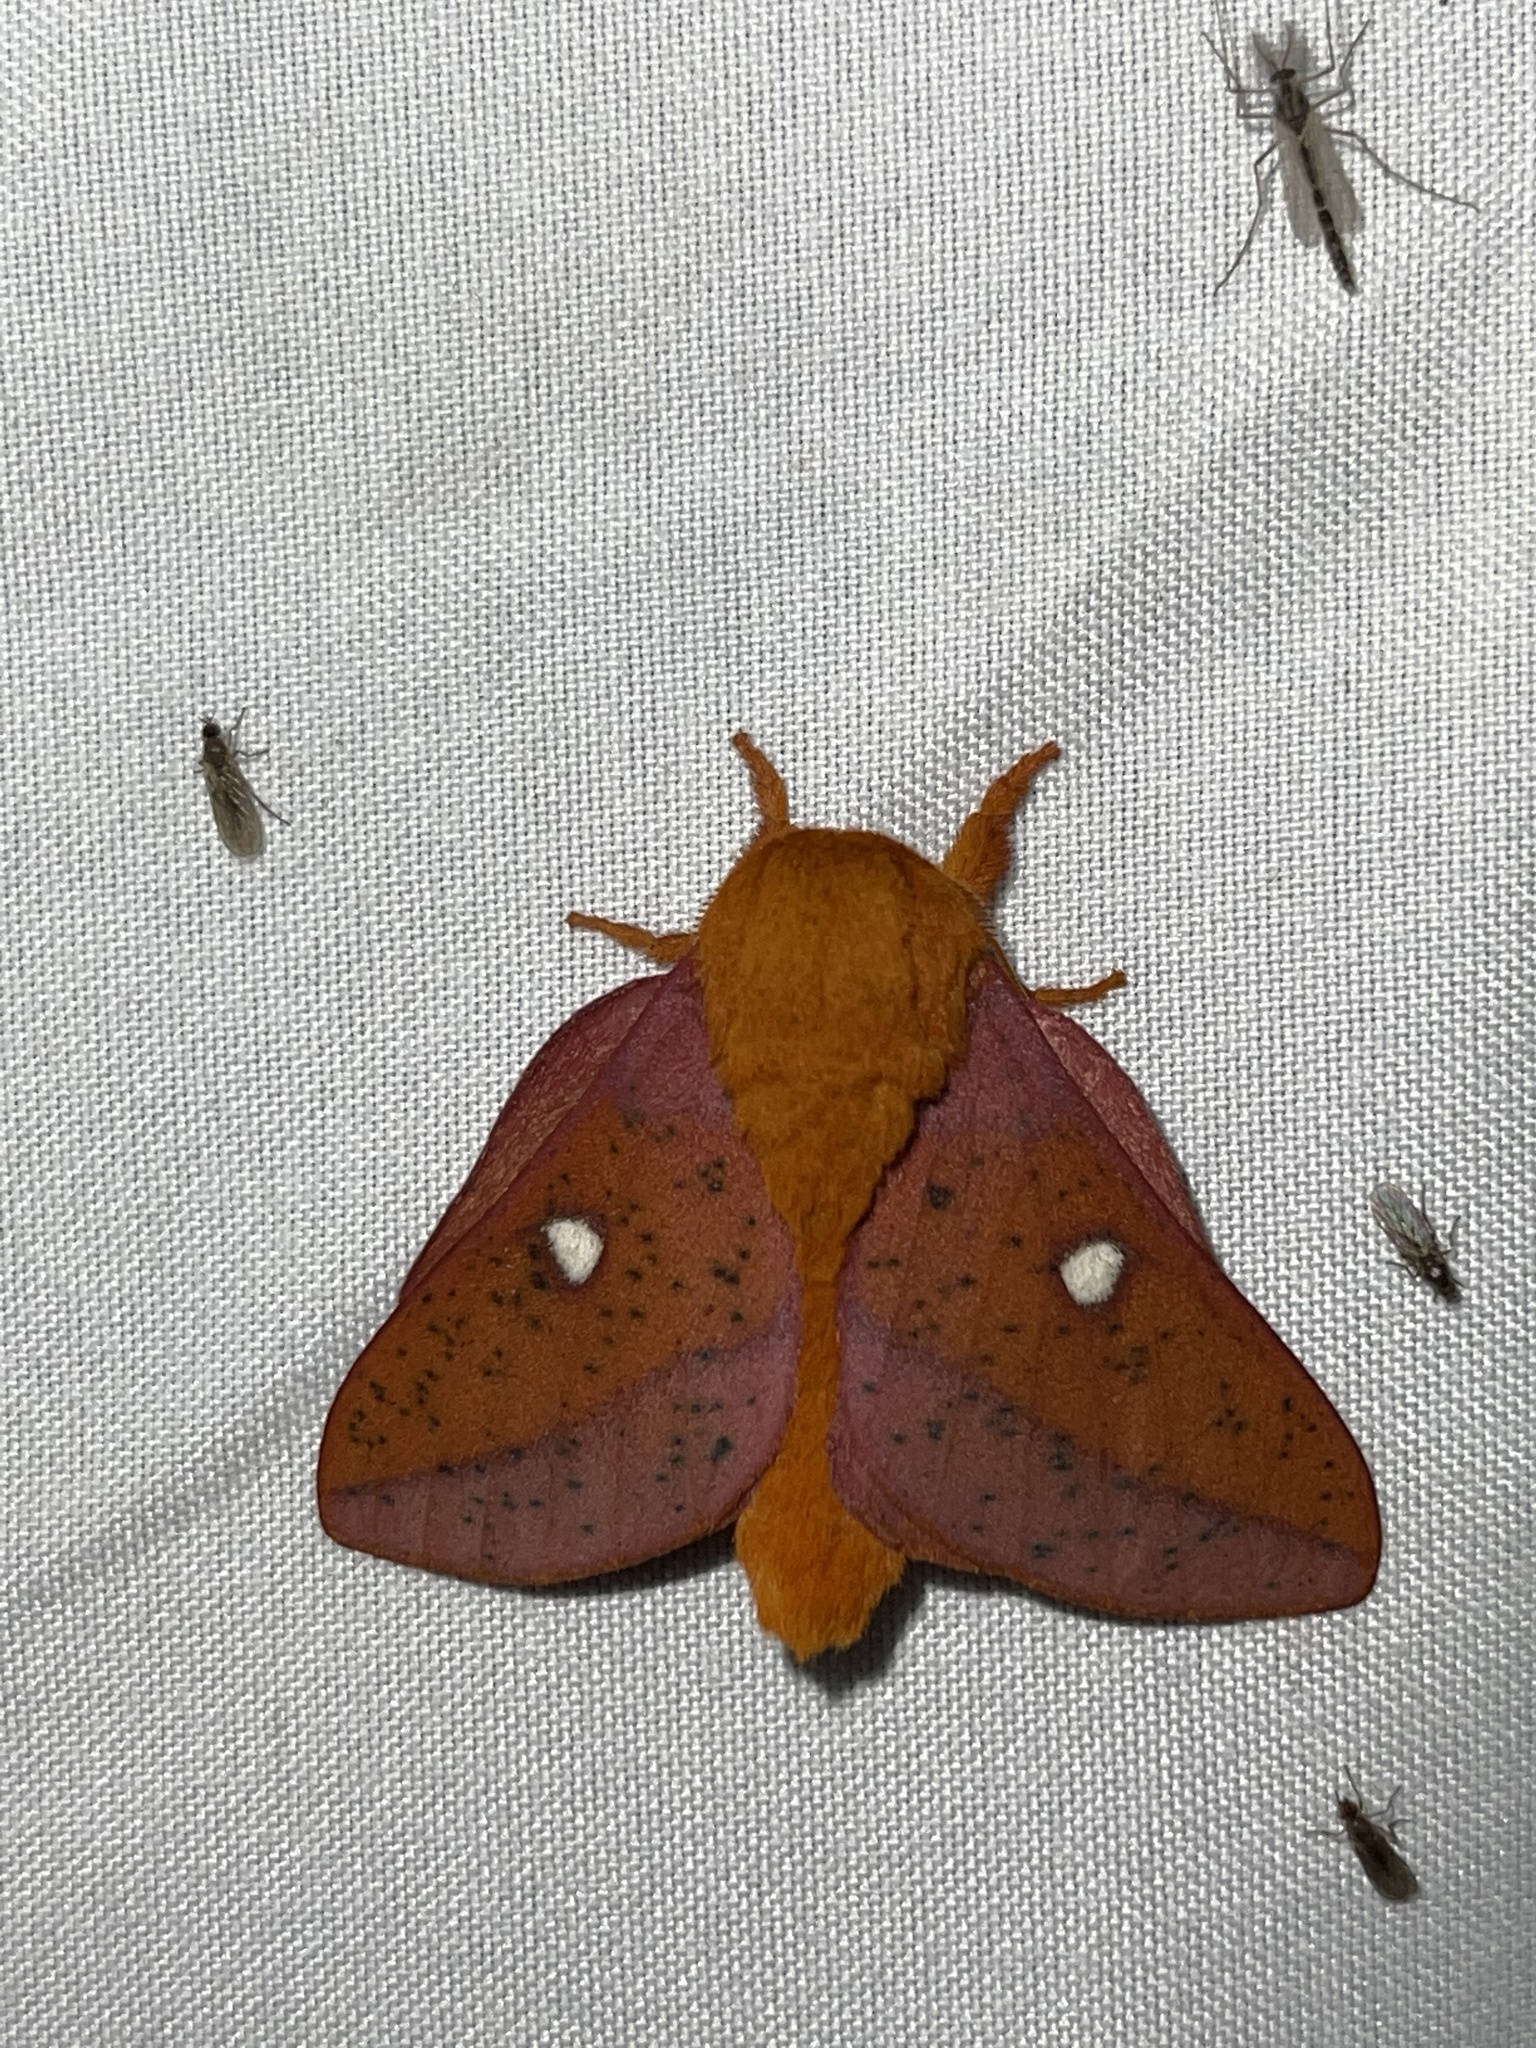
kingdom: Animalia
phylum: Arthropoda
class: Insecta
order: Lepidoptera
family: Saturniidae
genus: Anisota
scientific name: Anisota stigma
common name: Spiny oakworm moth
